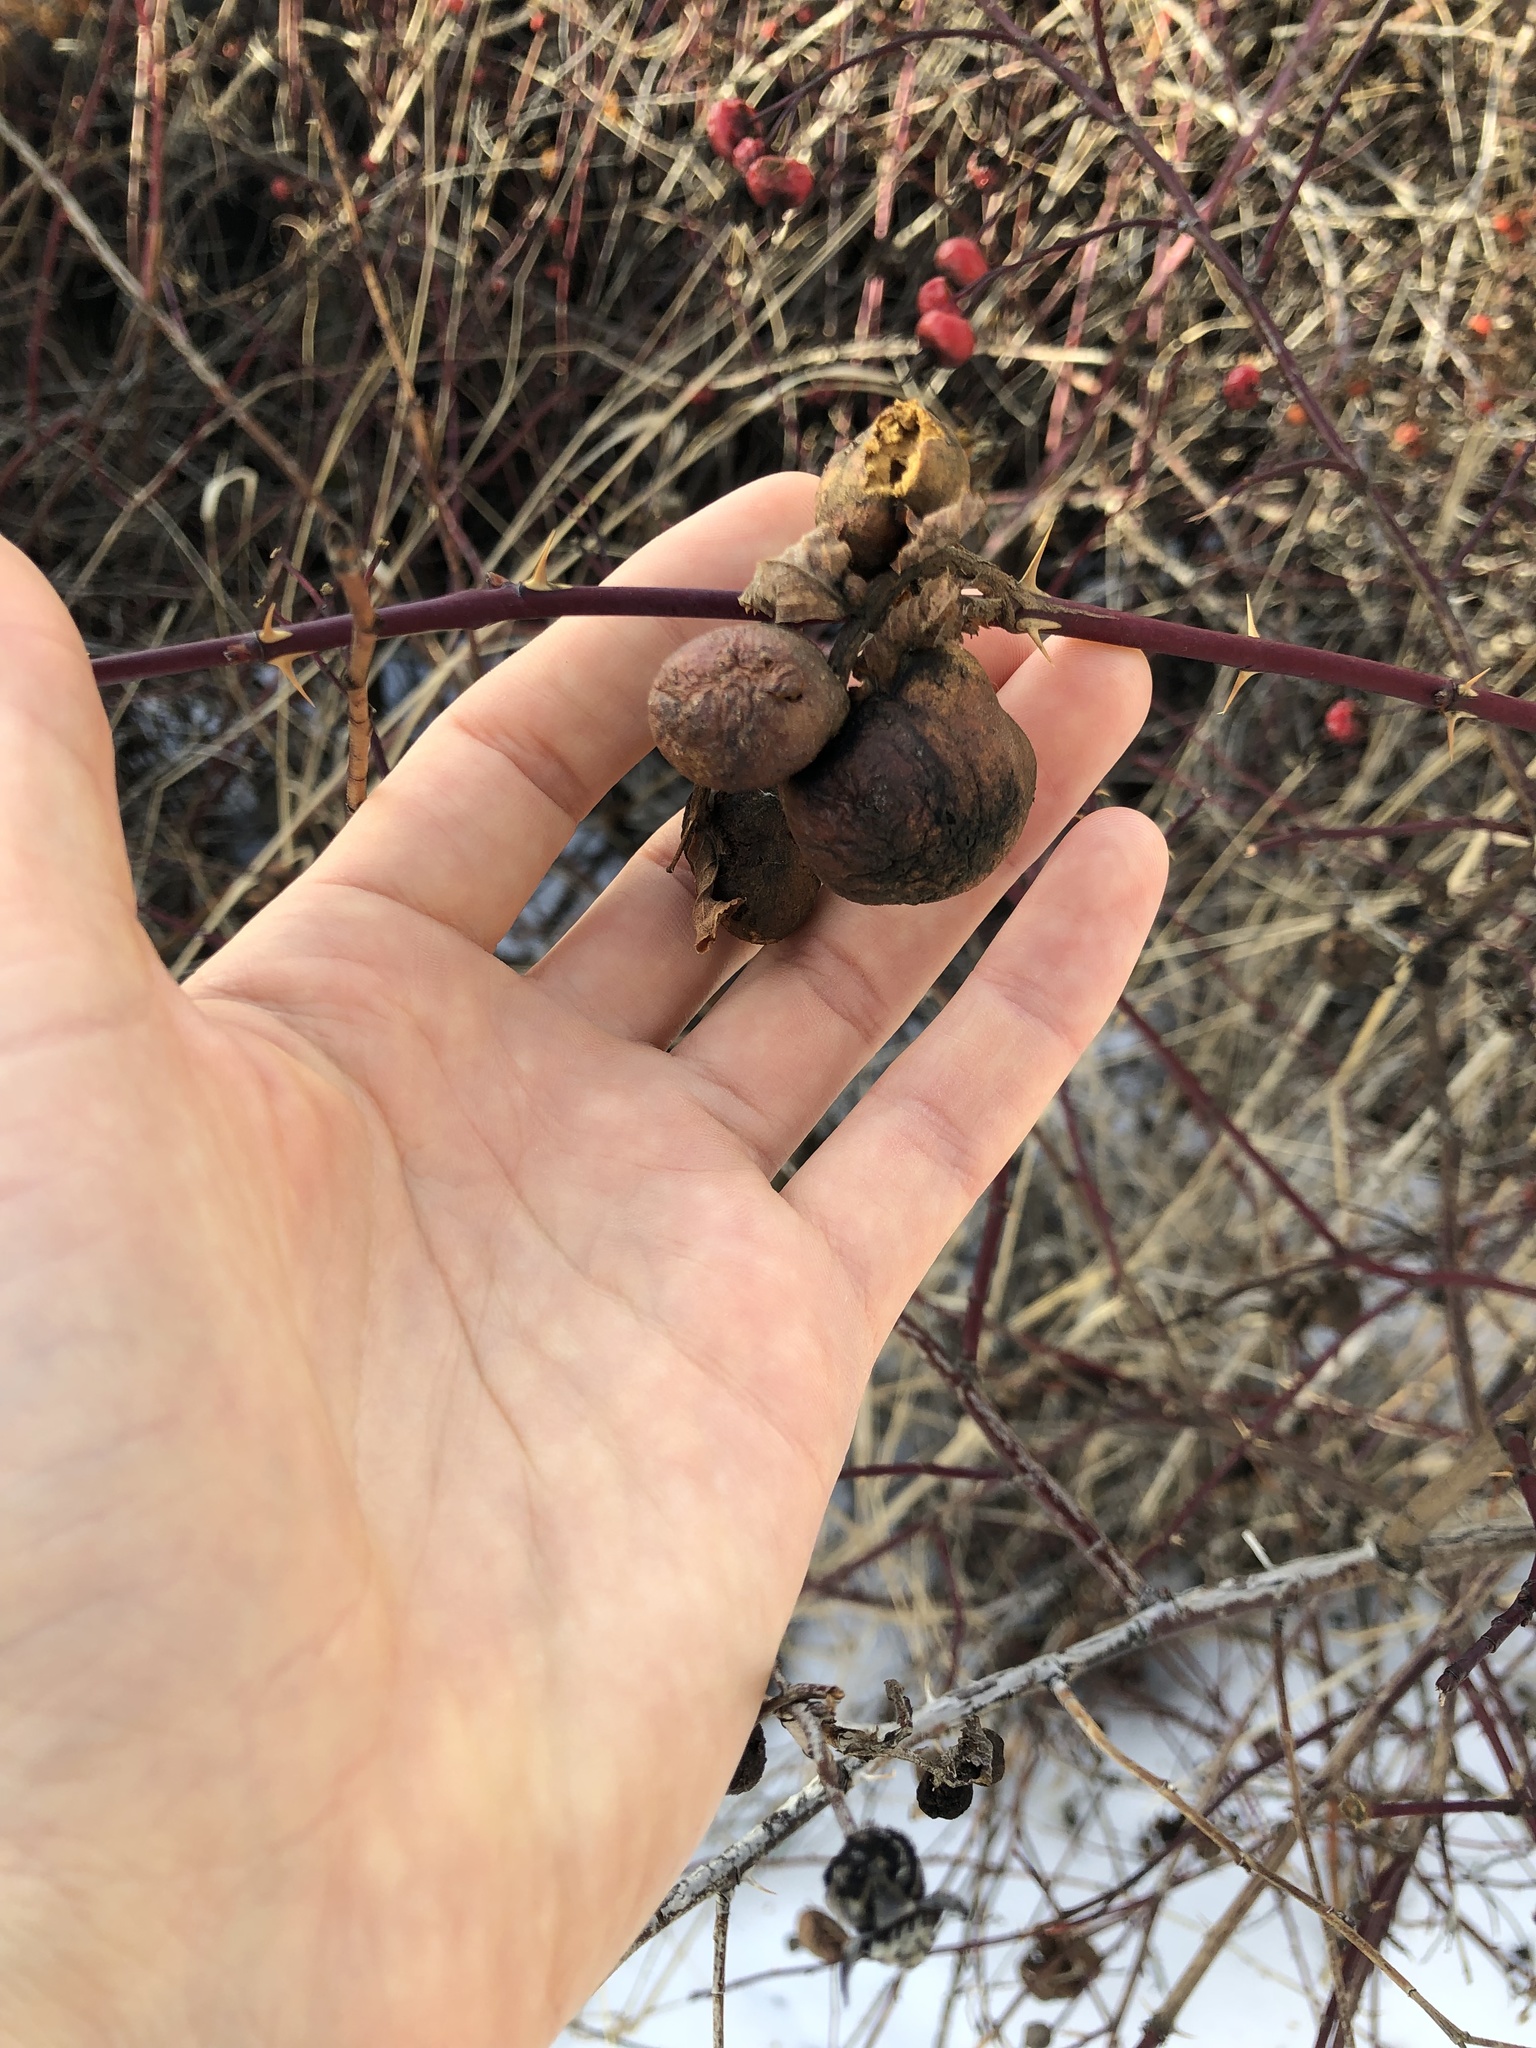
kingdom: Animalia
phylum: Arthropoda
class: Insecta
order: Hymenoptera
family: Cynipidae
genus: Diplolepis
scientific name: Diplolepis variabilis
